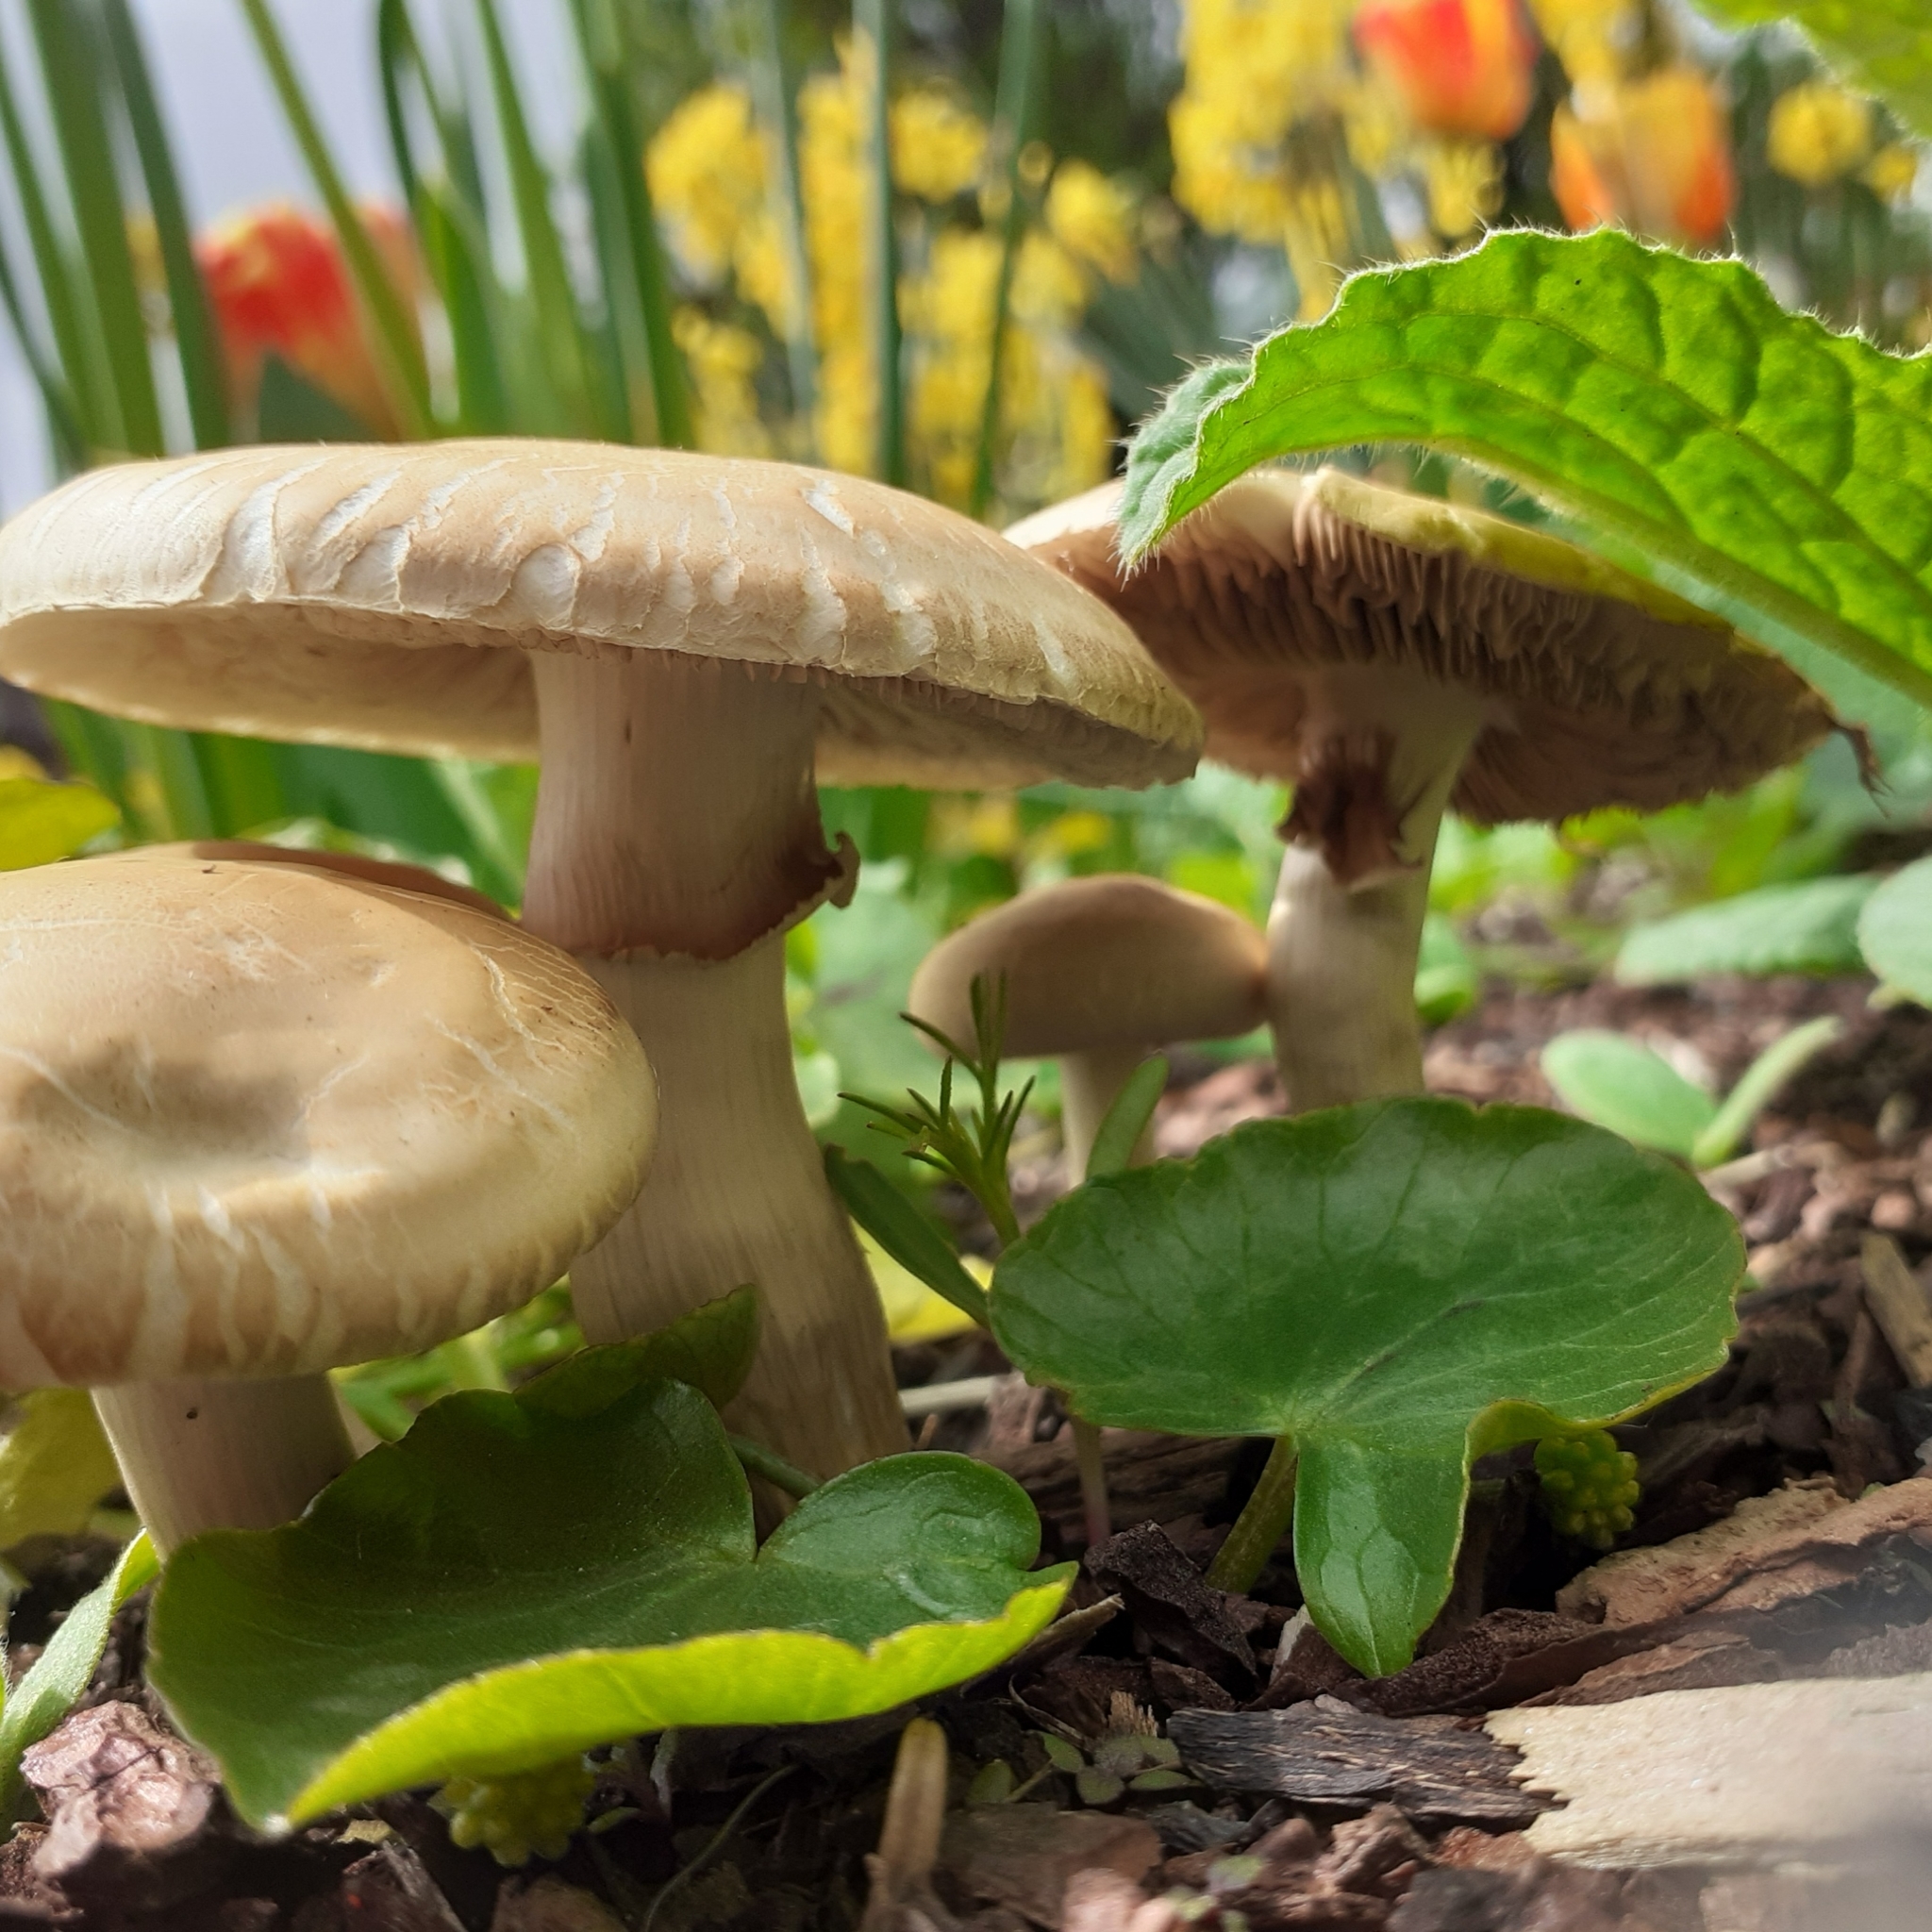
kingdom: Fungi
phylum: Basidiomycota
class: Agaricomycetes
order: Agaricales
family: Strophariaceae
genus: Agrocybe
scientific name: Agrocybe praecox
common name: Spring fieldcap
